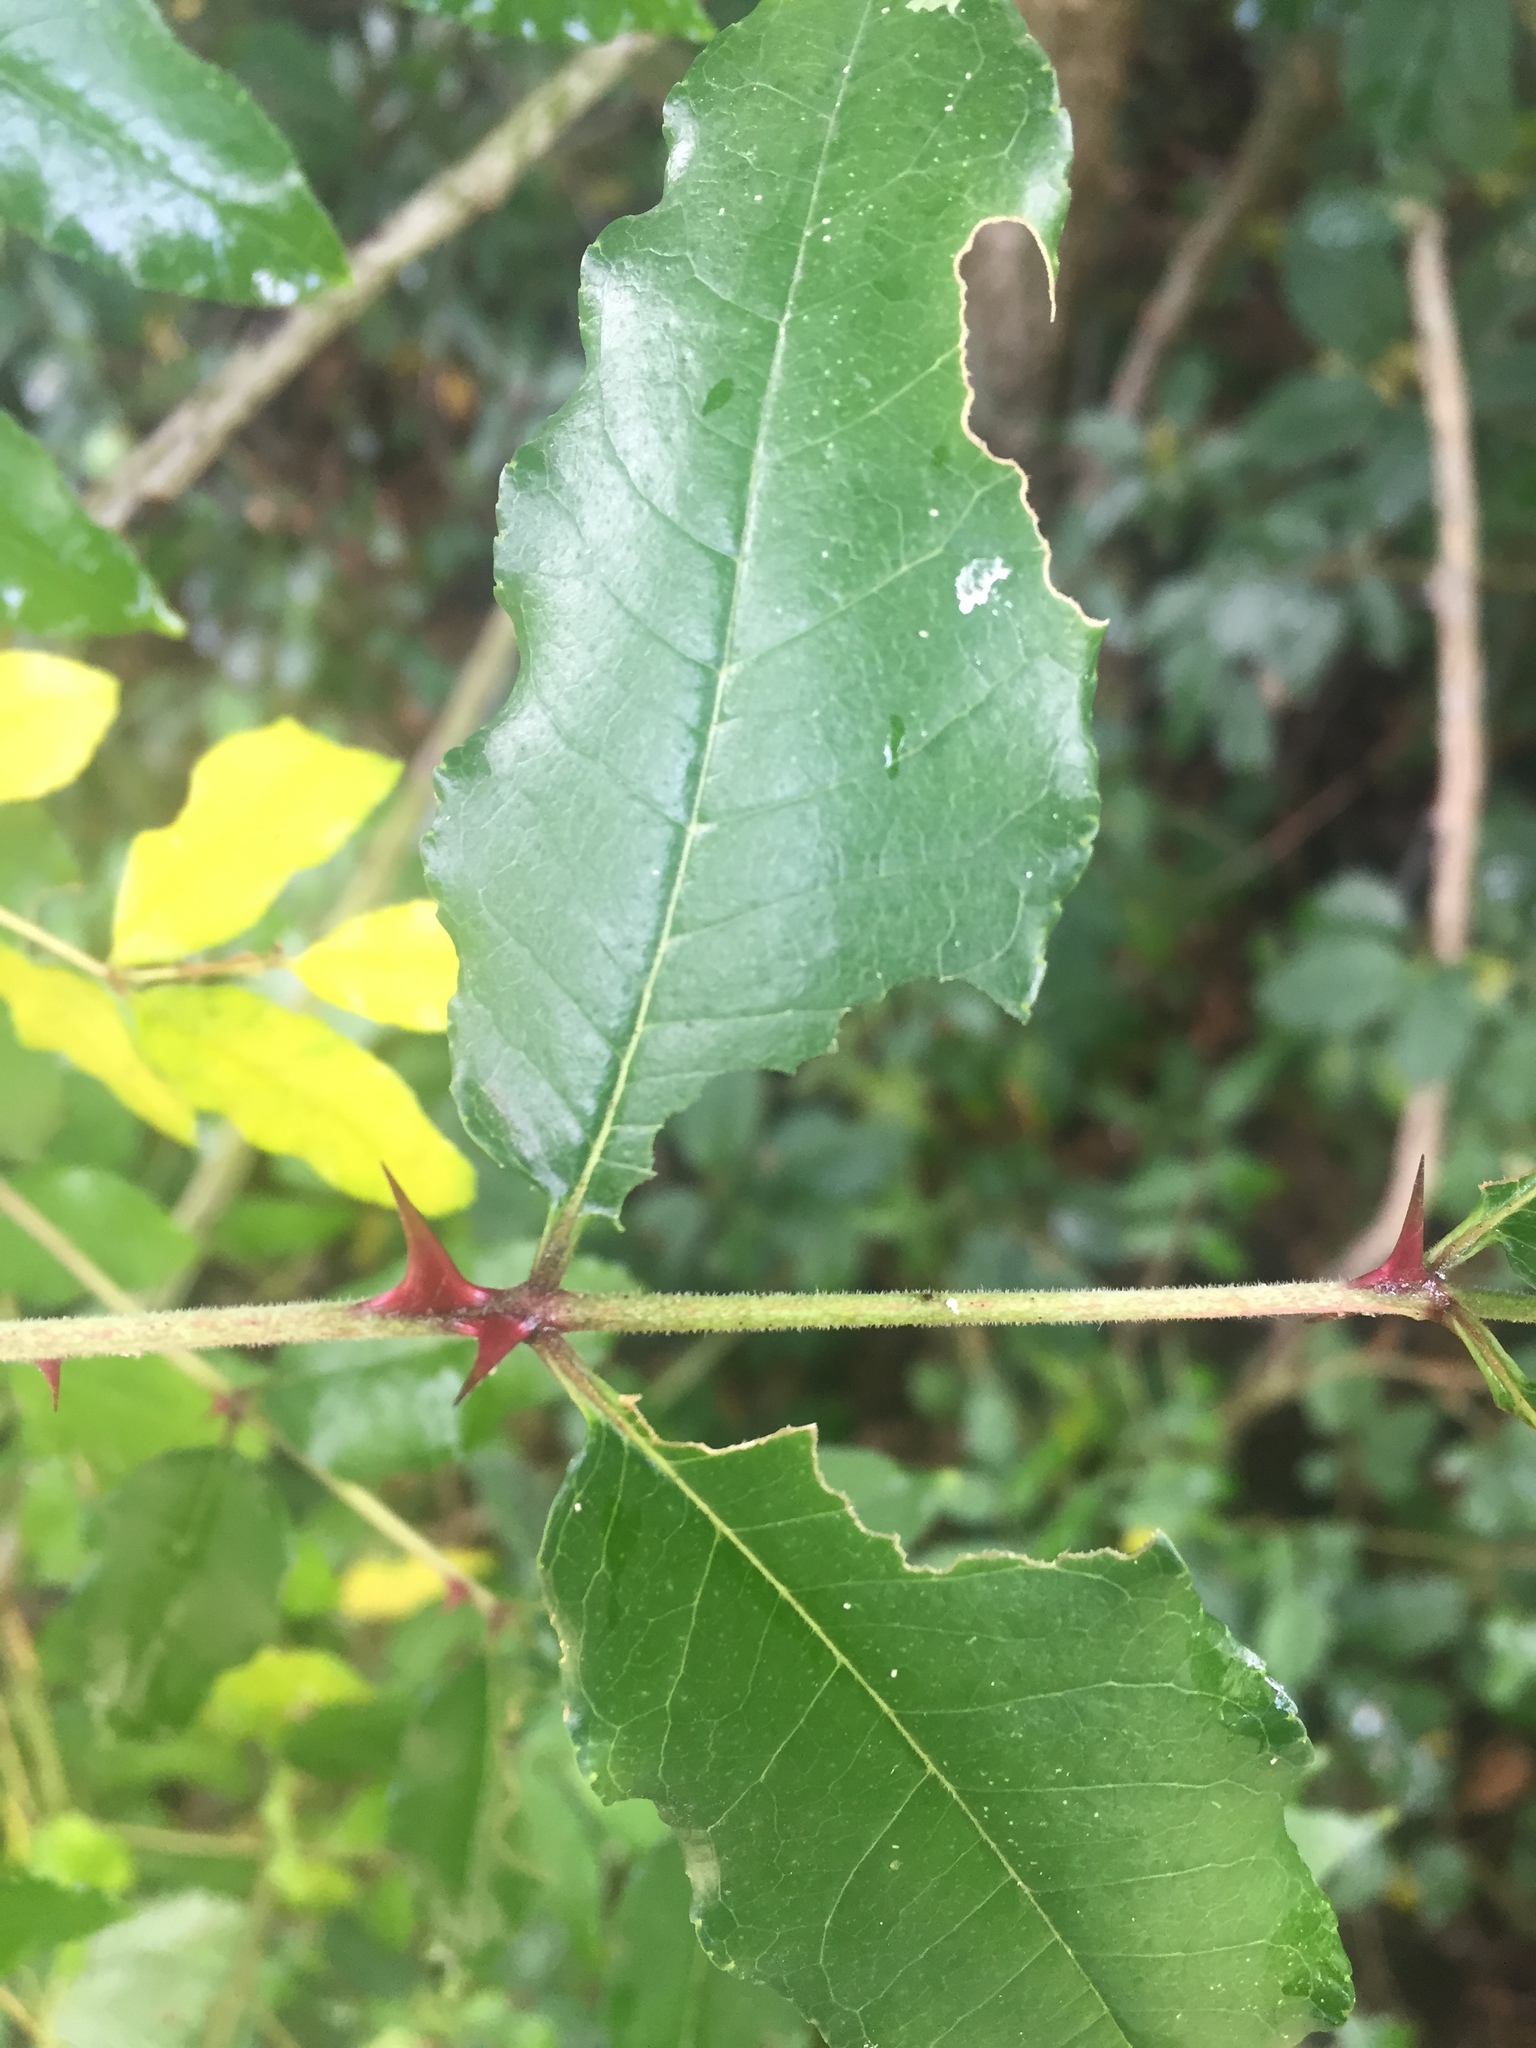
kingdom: Plantae
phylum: Tracheophyta
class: Magnoliopsida
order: Sapindales
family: Rutaceae
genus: Zanthoxylum
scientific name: Zanthoxylum clava-herculis
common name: Hercules'-club
